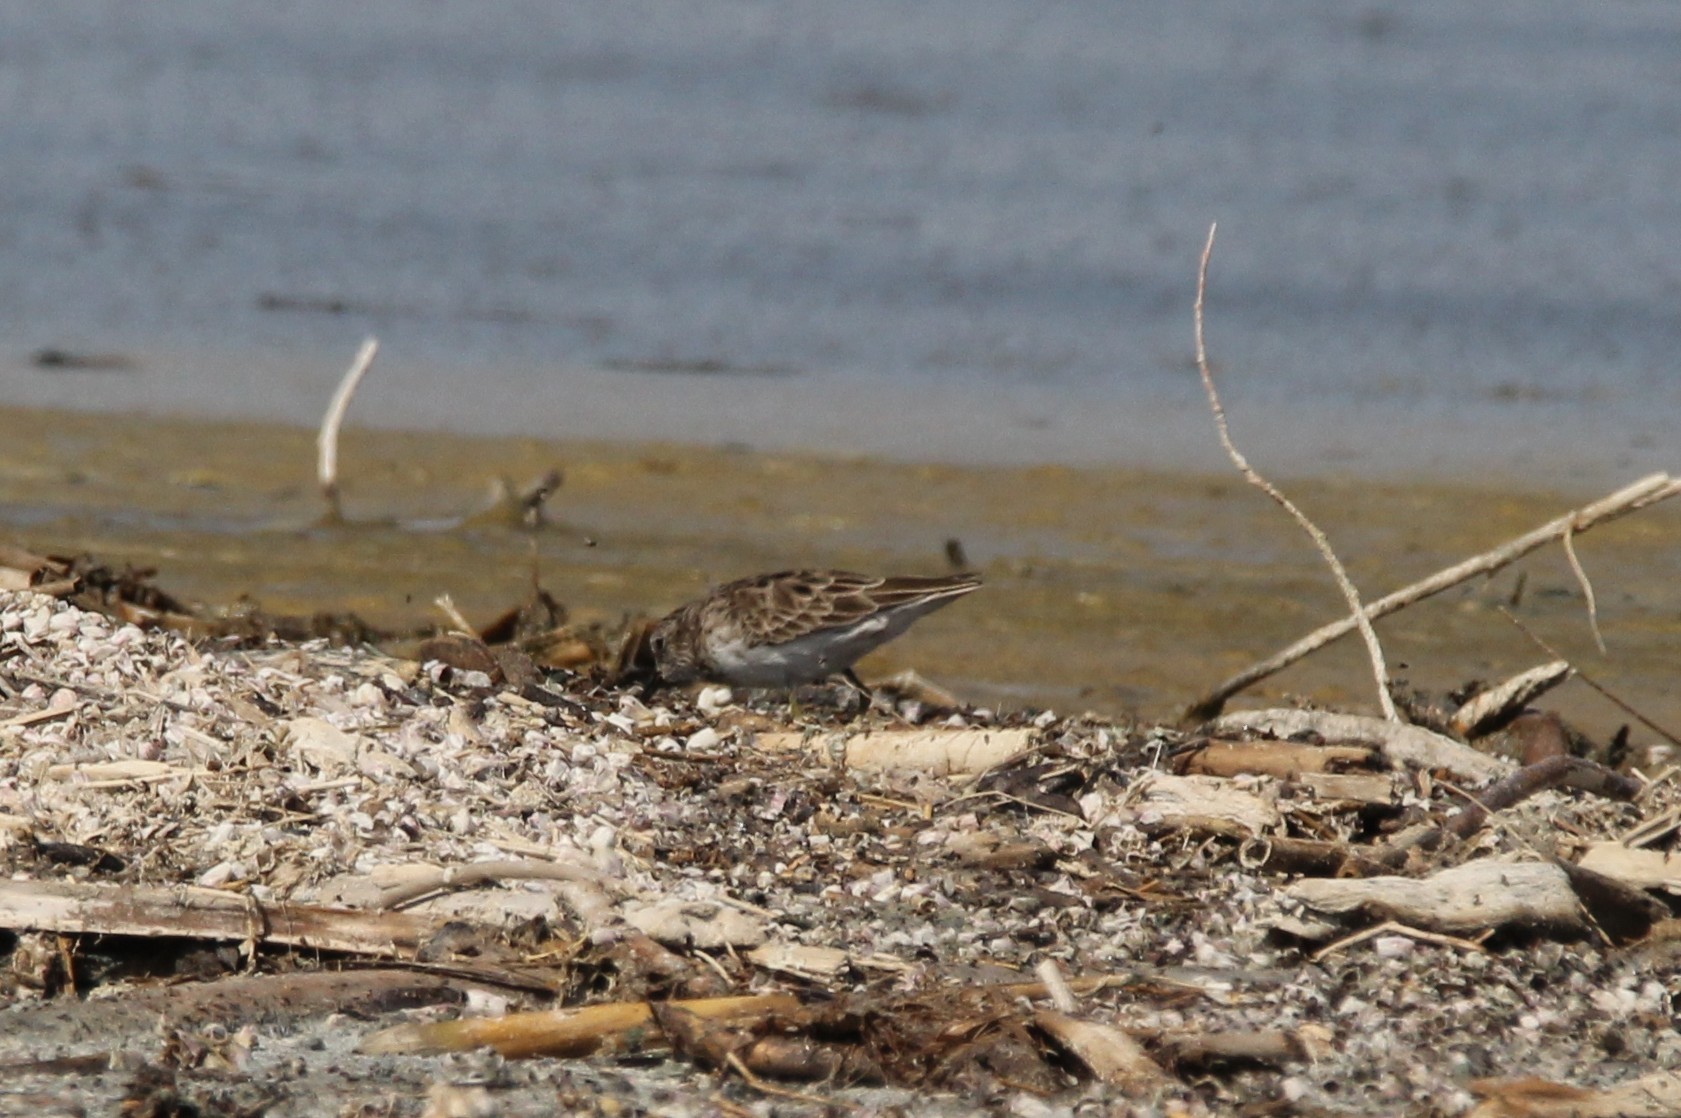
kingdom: Animalia
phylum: Chordata
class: Aves
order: Charadriiformes
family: Scolopacidae
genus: Calidris
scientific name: Calidris minutilla
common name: Least sandpiper
